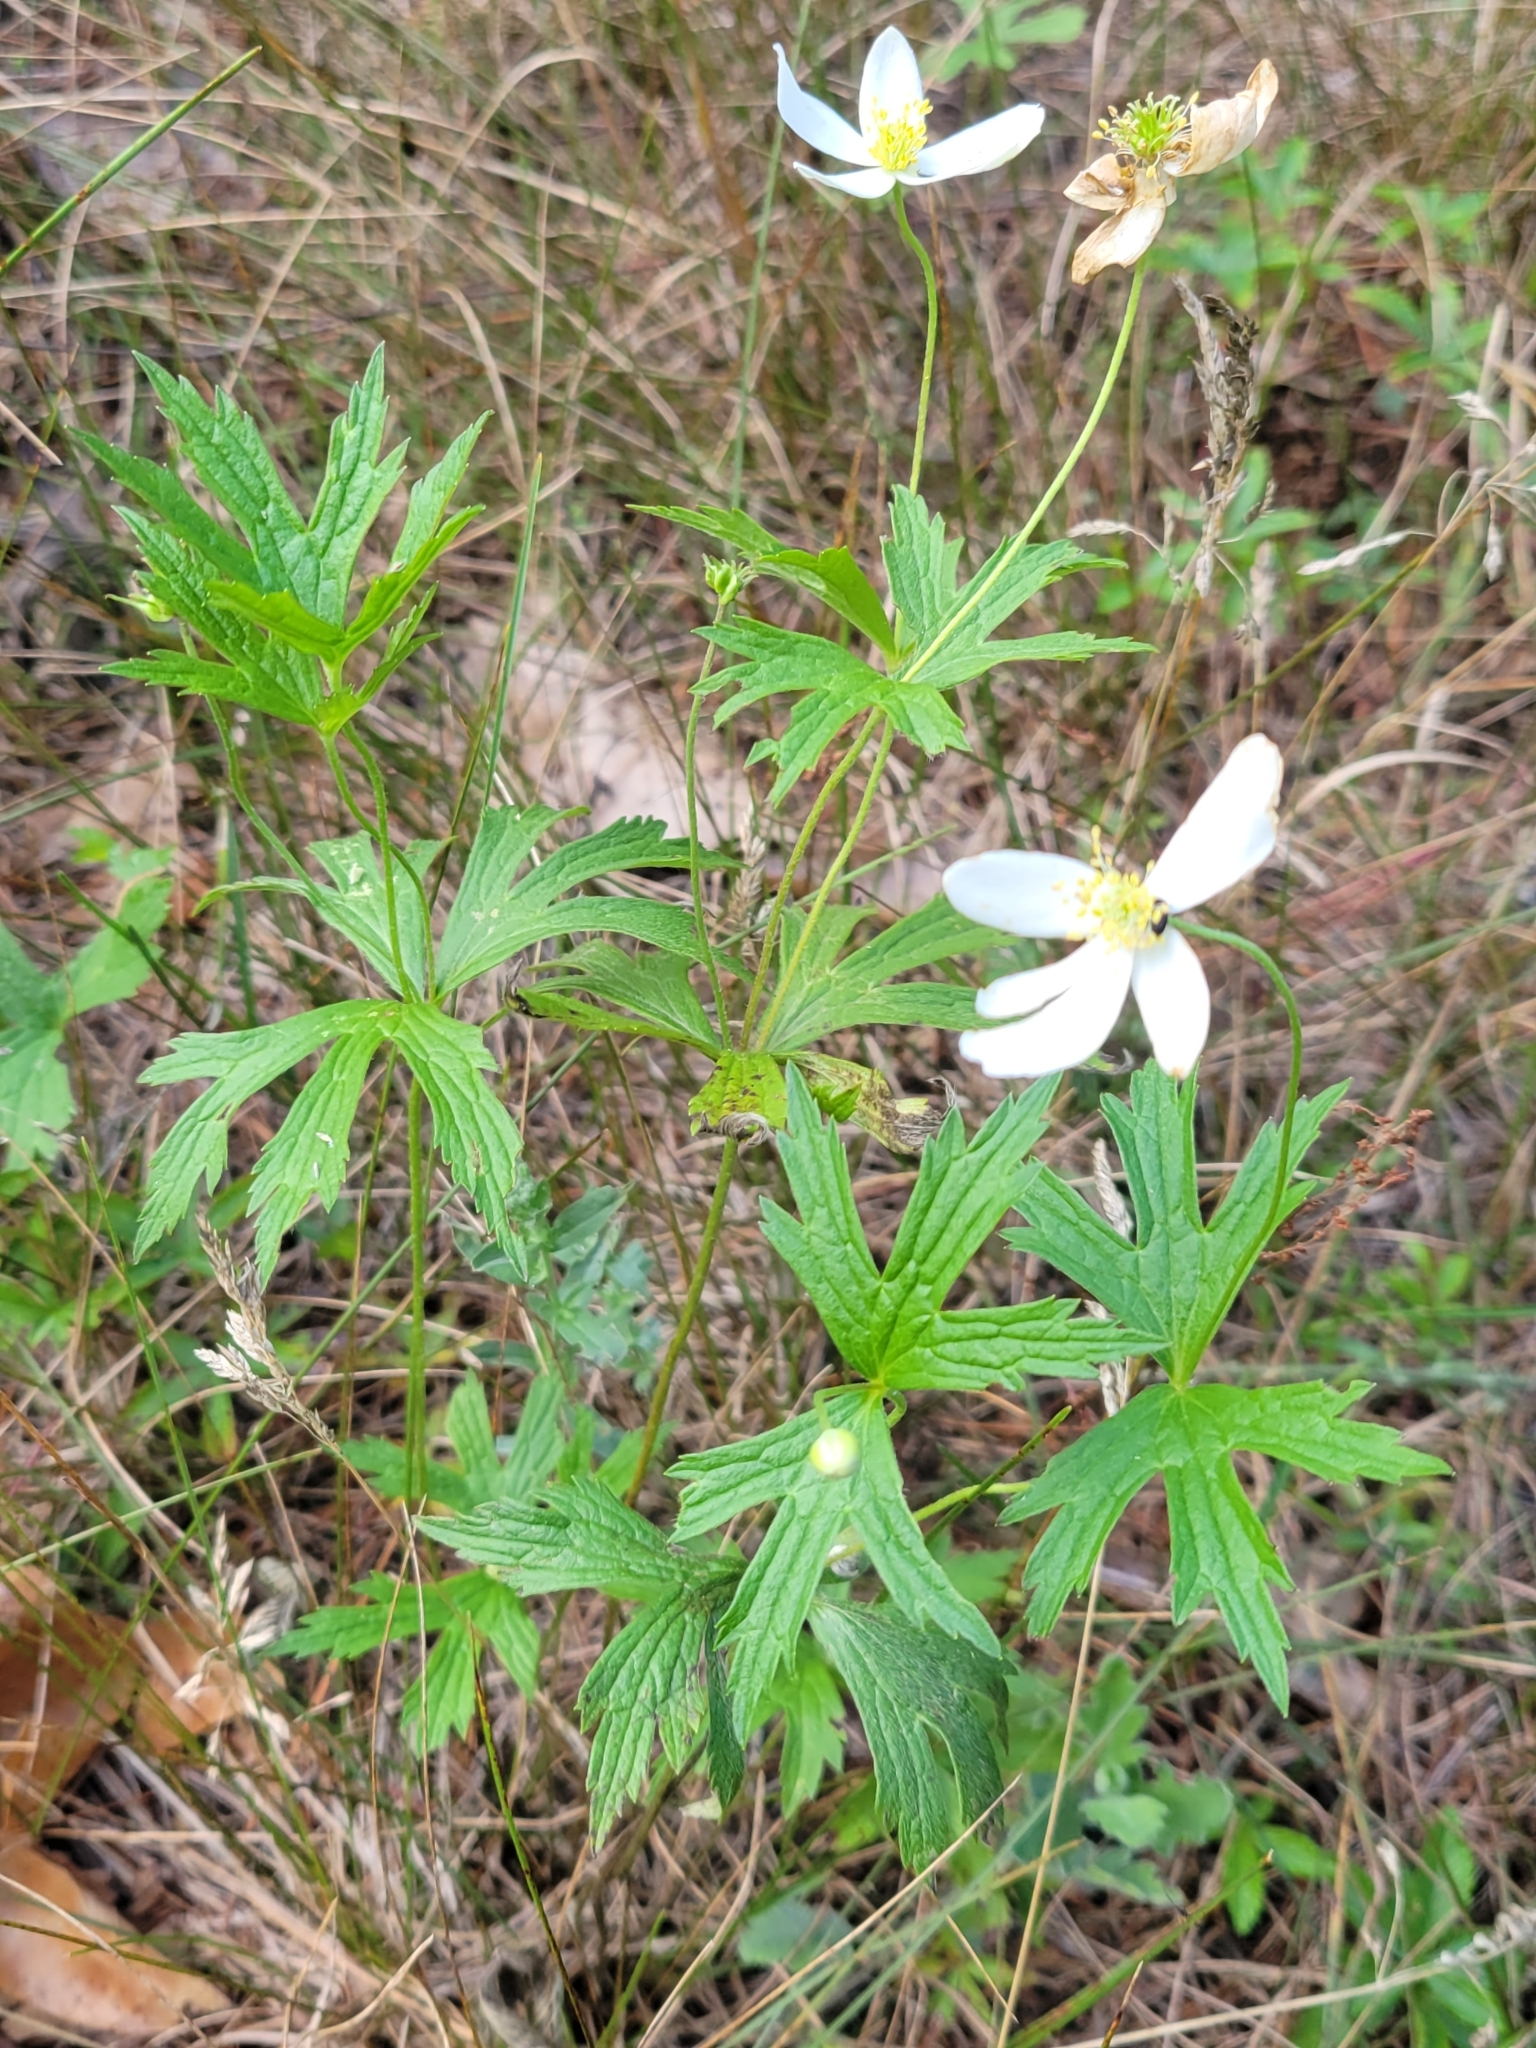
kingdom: Plantae
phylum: Tracheophyta
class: Magnoliopsida
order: Ranunculales
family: Ranunculaceae
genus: Anemonastrum
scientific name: Anemonastrum canadense
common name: Canada anemone
